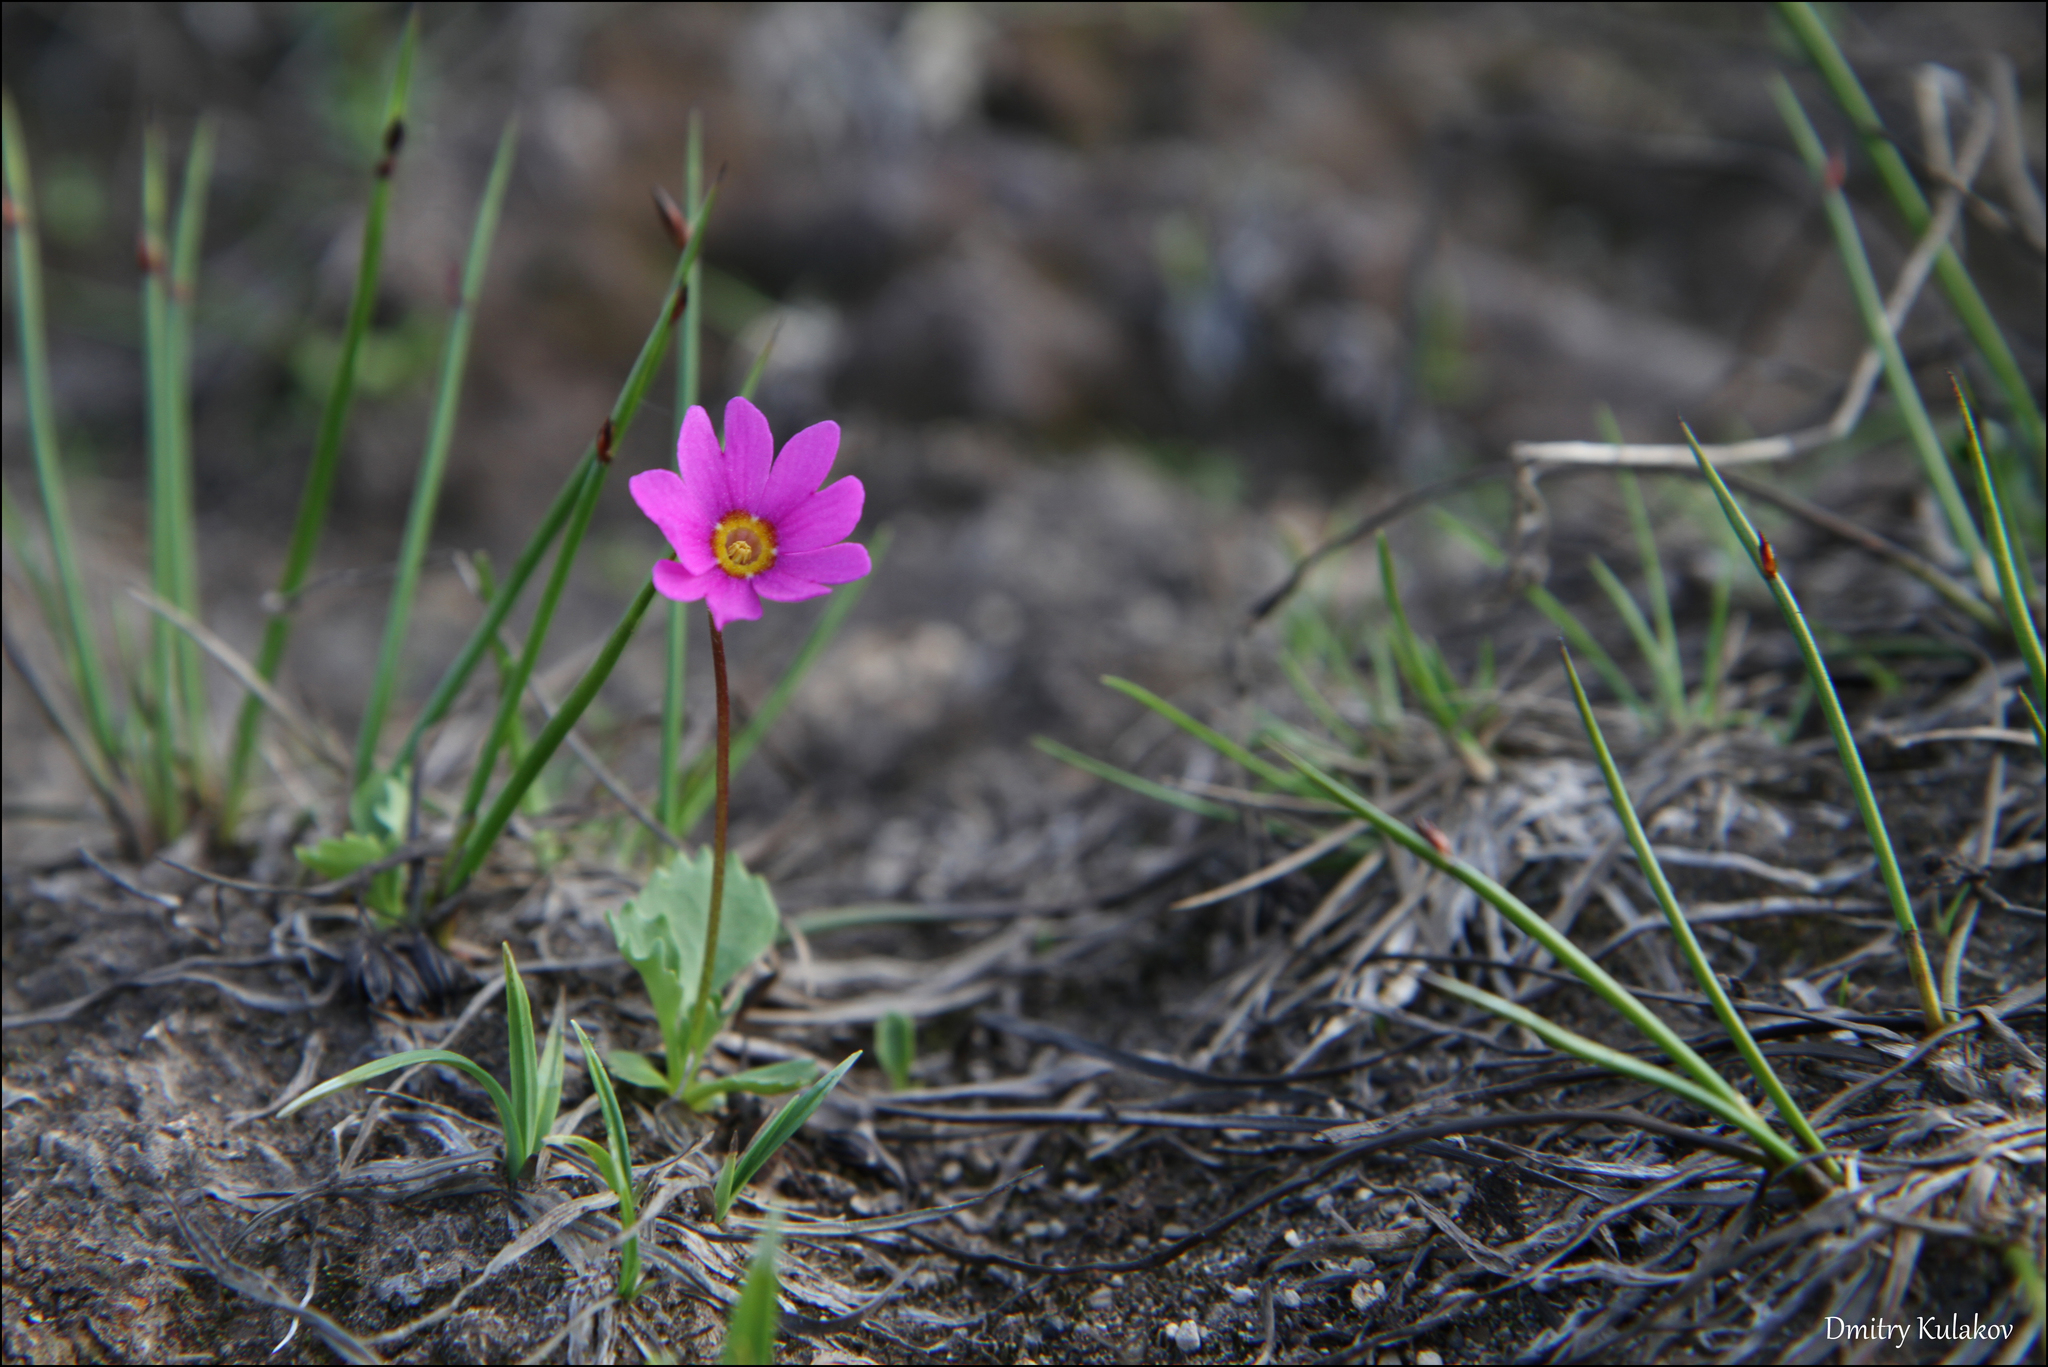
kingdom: Plantae
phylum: Tracheophyta
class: Magnoliopsida
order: Ericales
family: Primulaceae
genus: Primula
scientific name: Primula cuneifolia
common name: Wedge-leaved primrose
